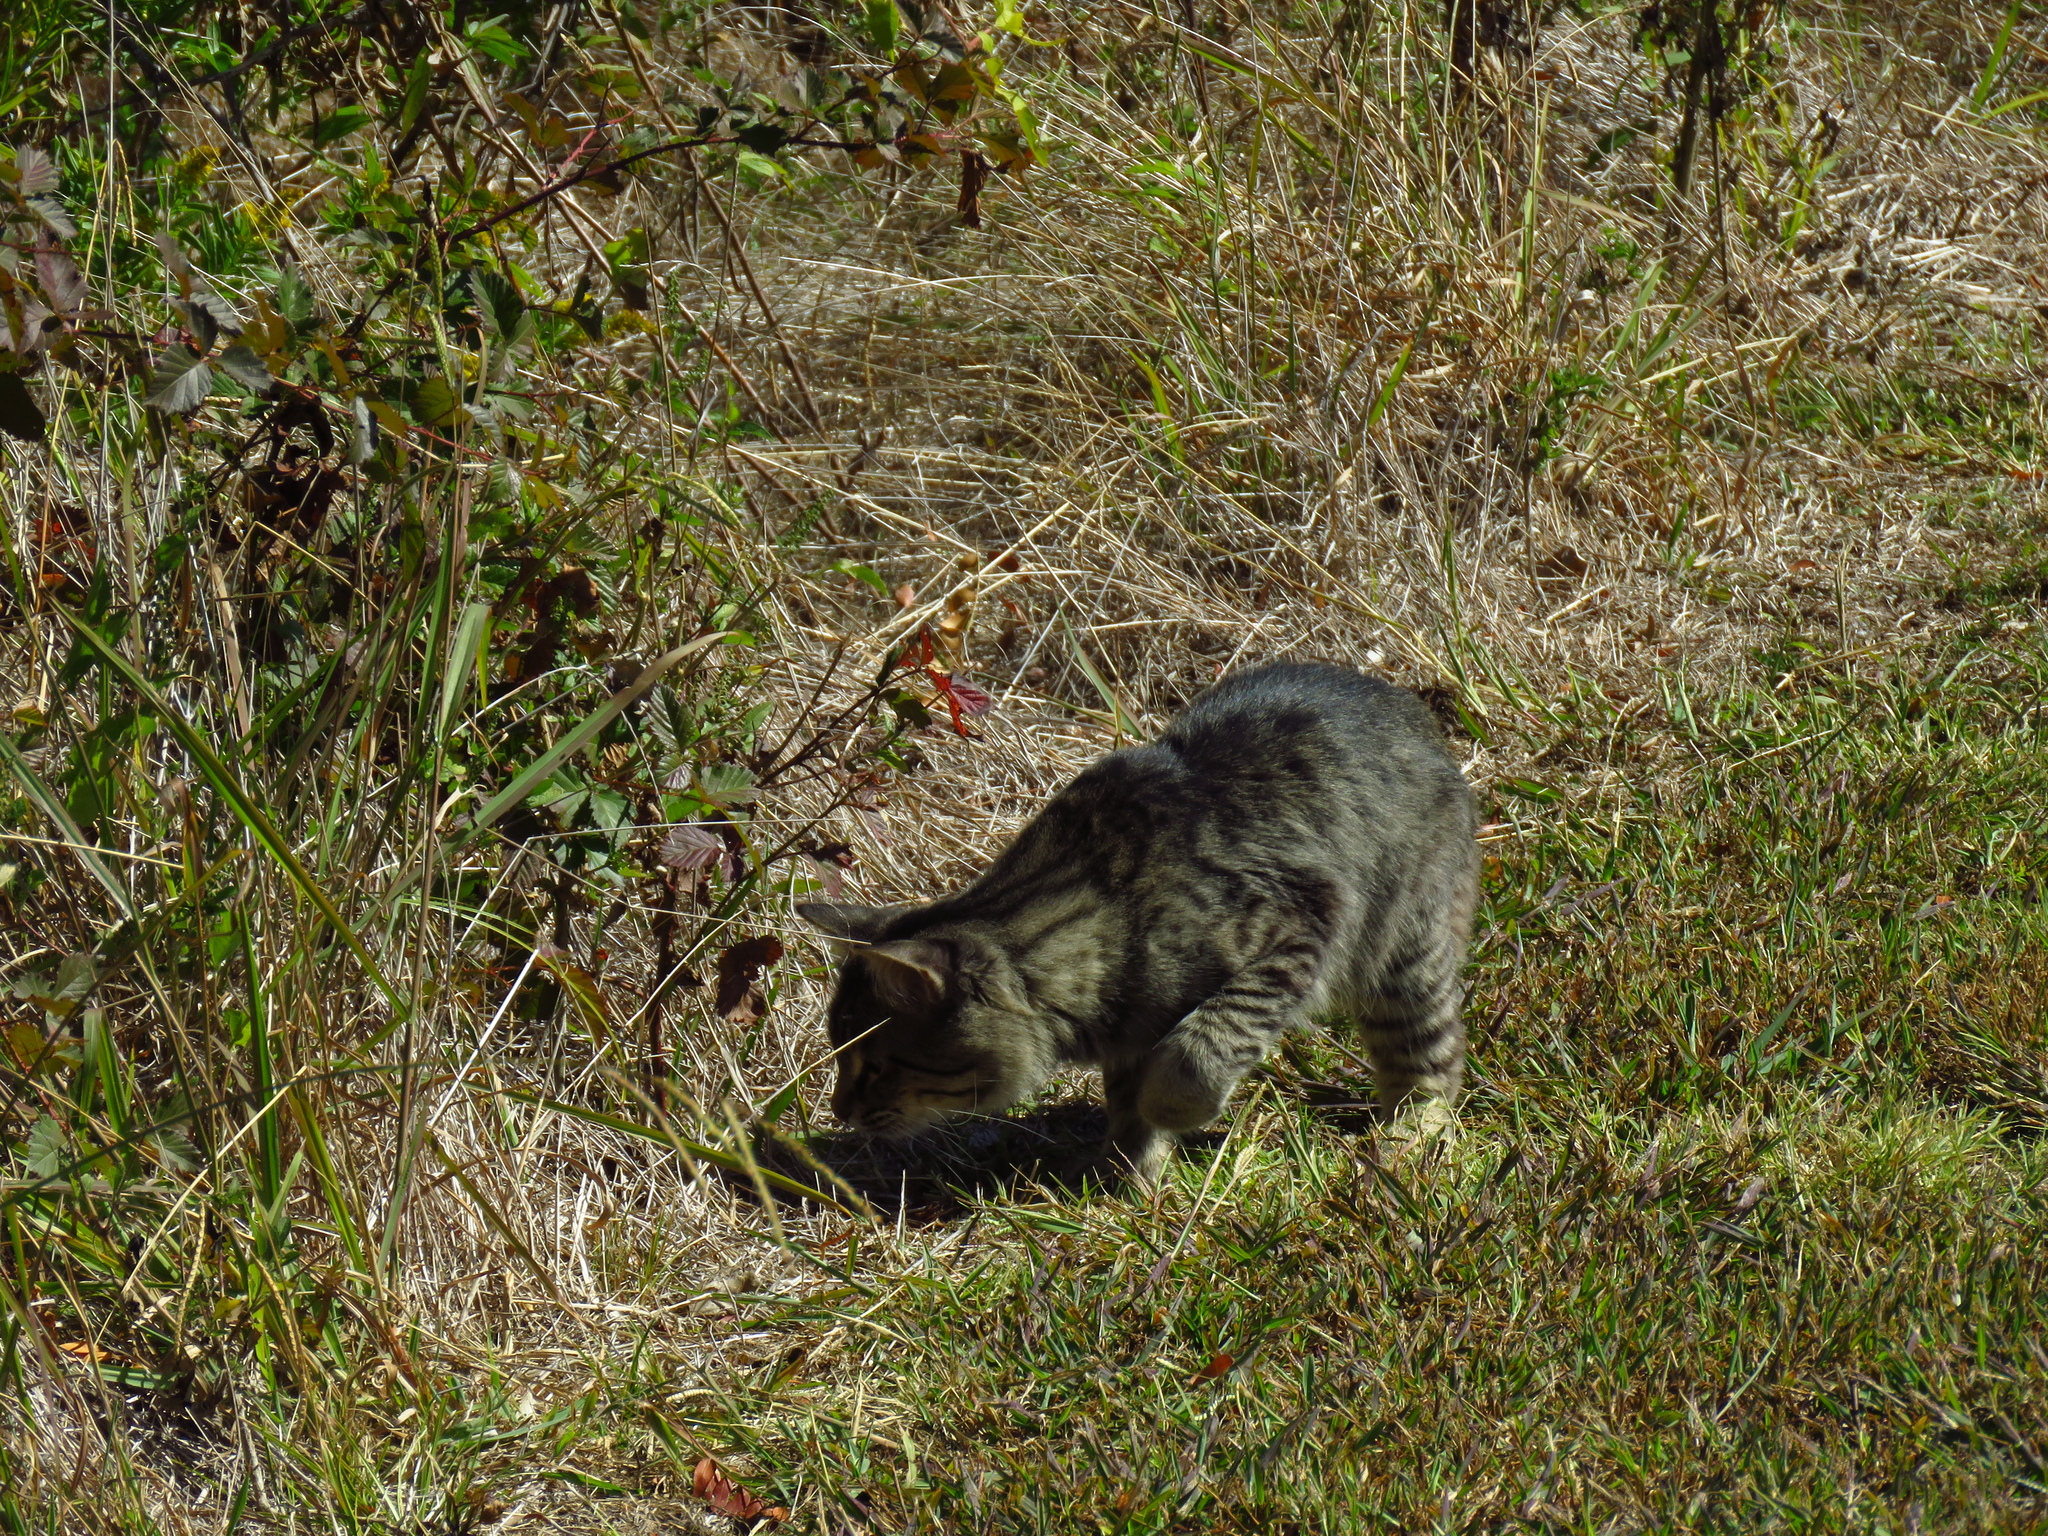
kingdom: Animalia
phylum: Chordata
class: Mammalia
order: Carnivora
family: Felidae
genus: Felis
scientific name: Felis catus
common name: Domestic cat
